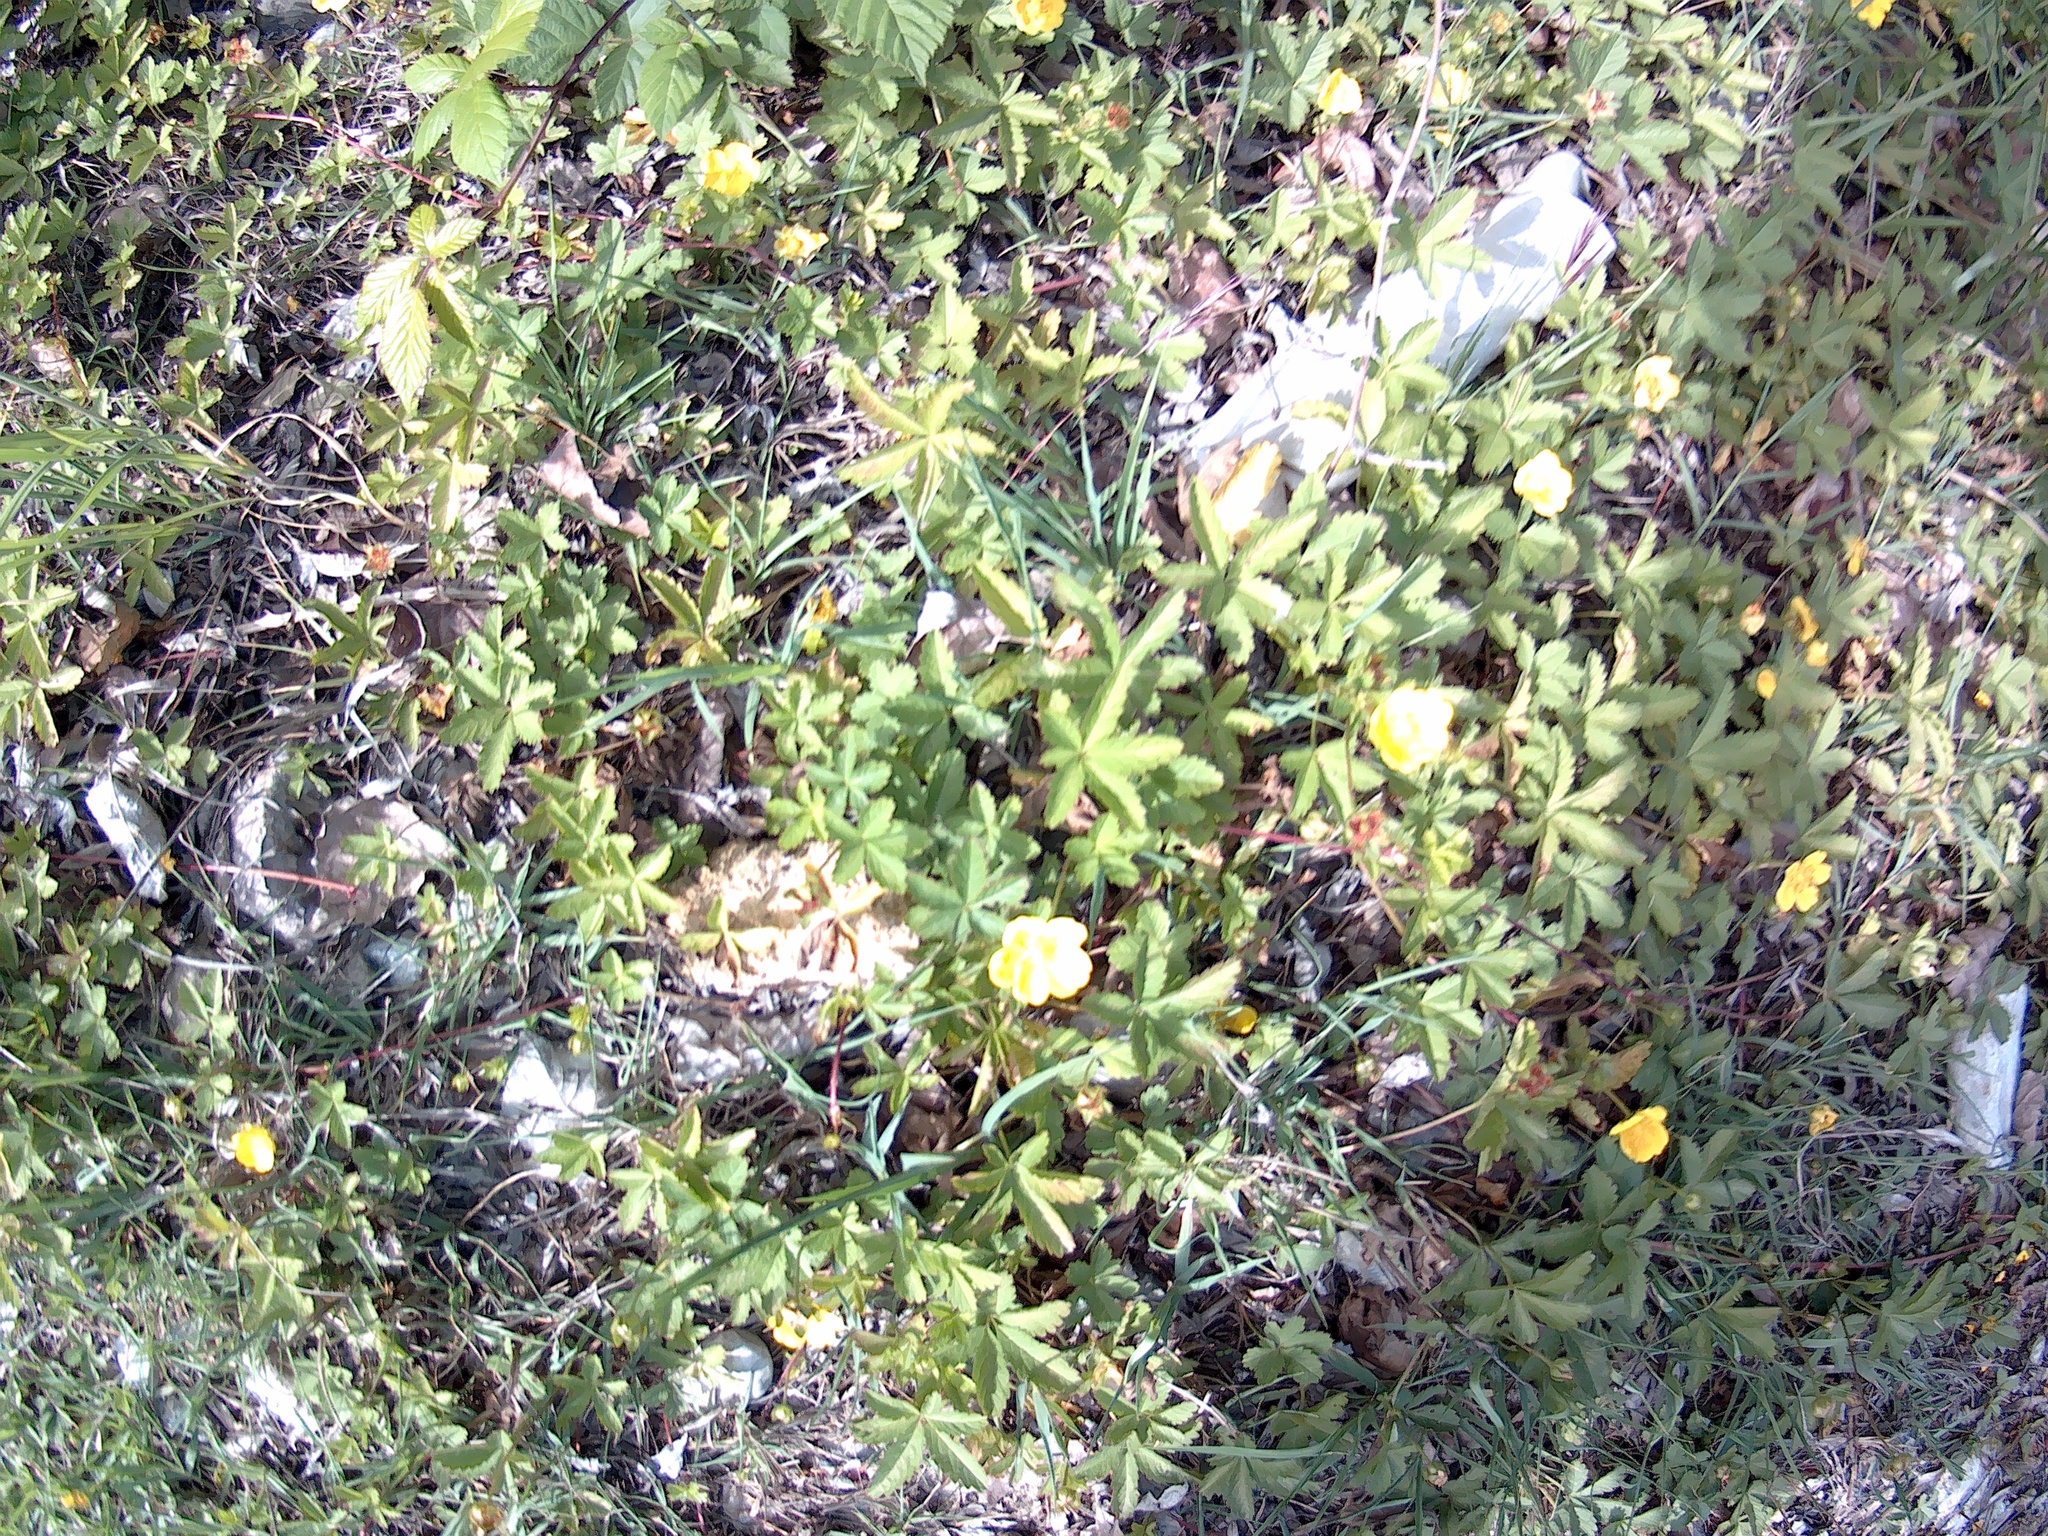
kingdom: Plantae
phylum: Tracheophyta
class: Magnoliopsida
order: Rosales
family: Rosaceae
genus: Potentilla
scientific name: Potentilla reptans
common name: Creeping cinquefoil
